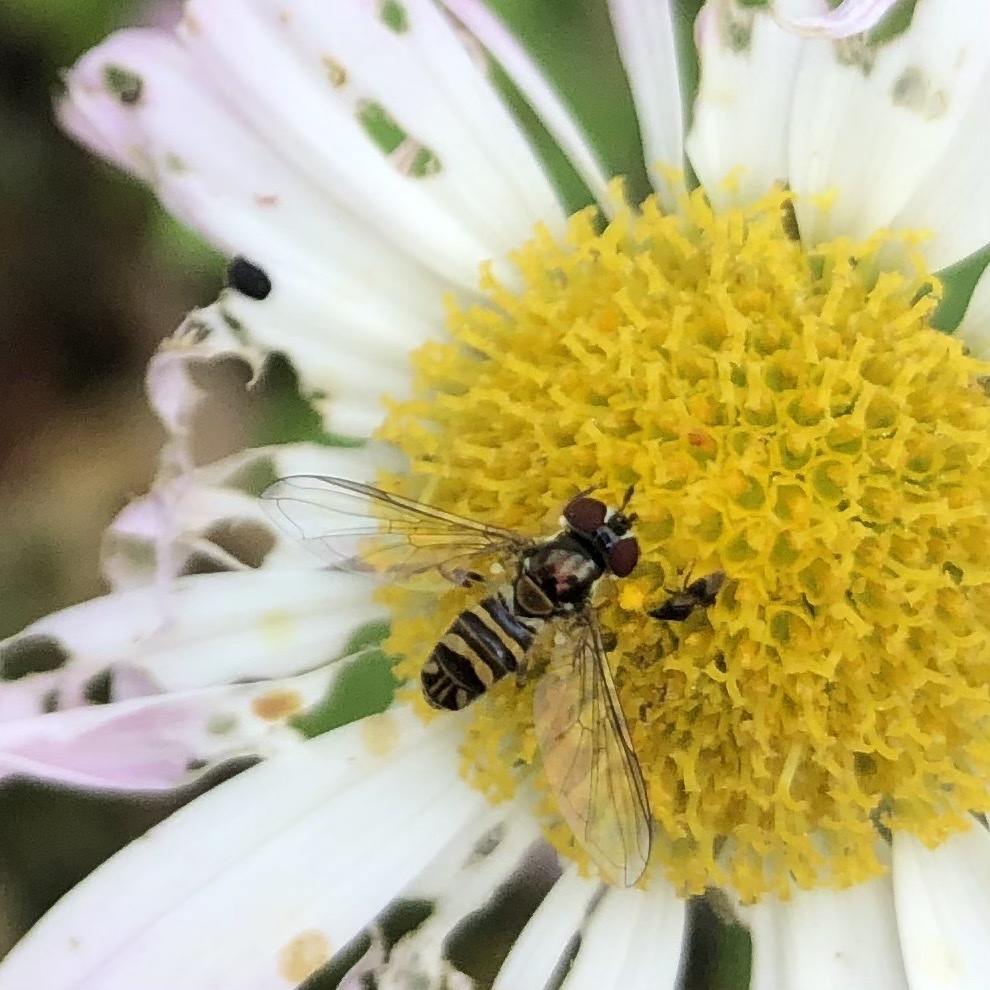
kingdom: Animalia
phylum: Arthropoda
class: Insecta
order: Diptera
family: Syrphidae
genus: Allograpta
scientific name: Allograpta obliqua
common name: Common oblique syrphid
